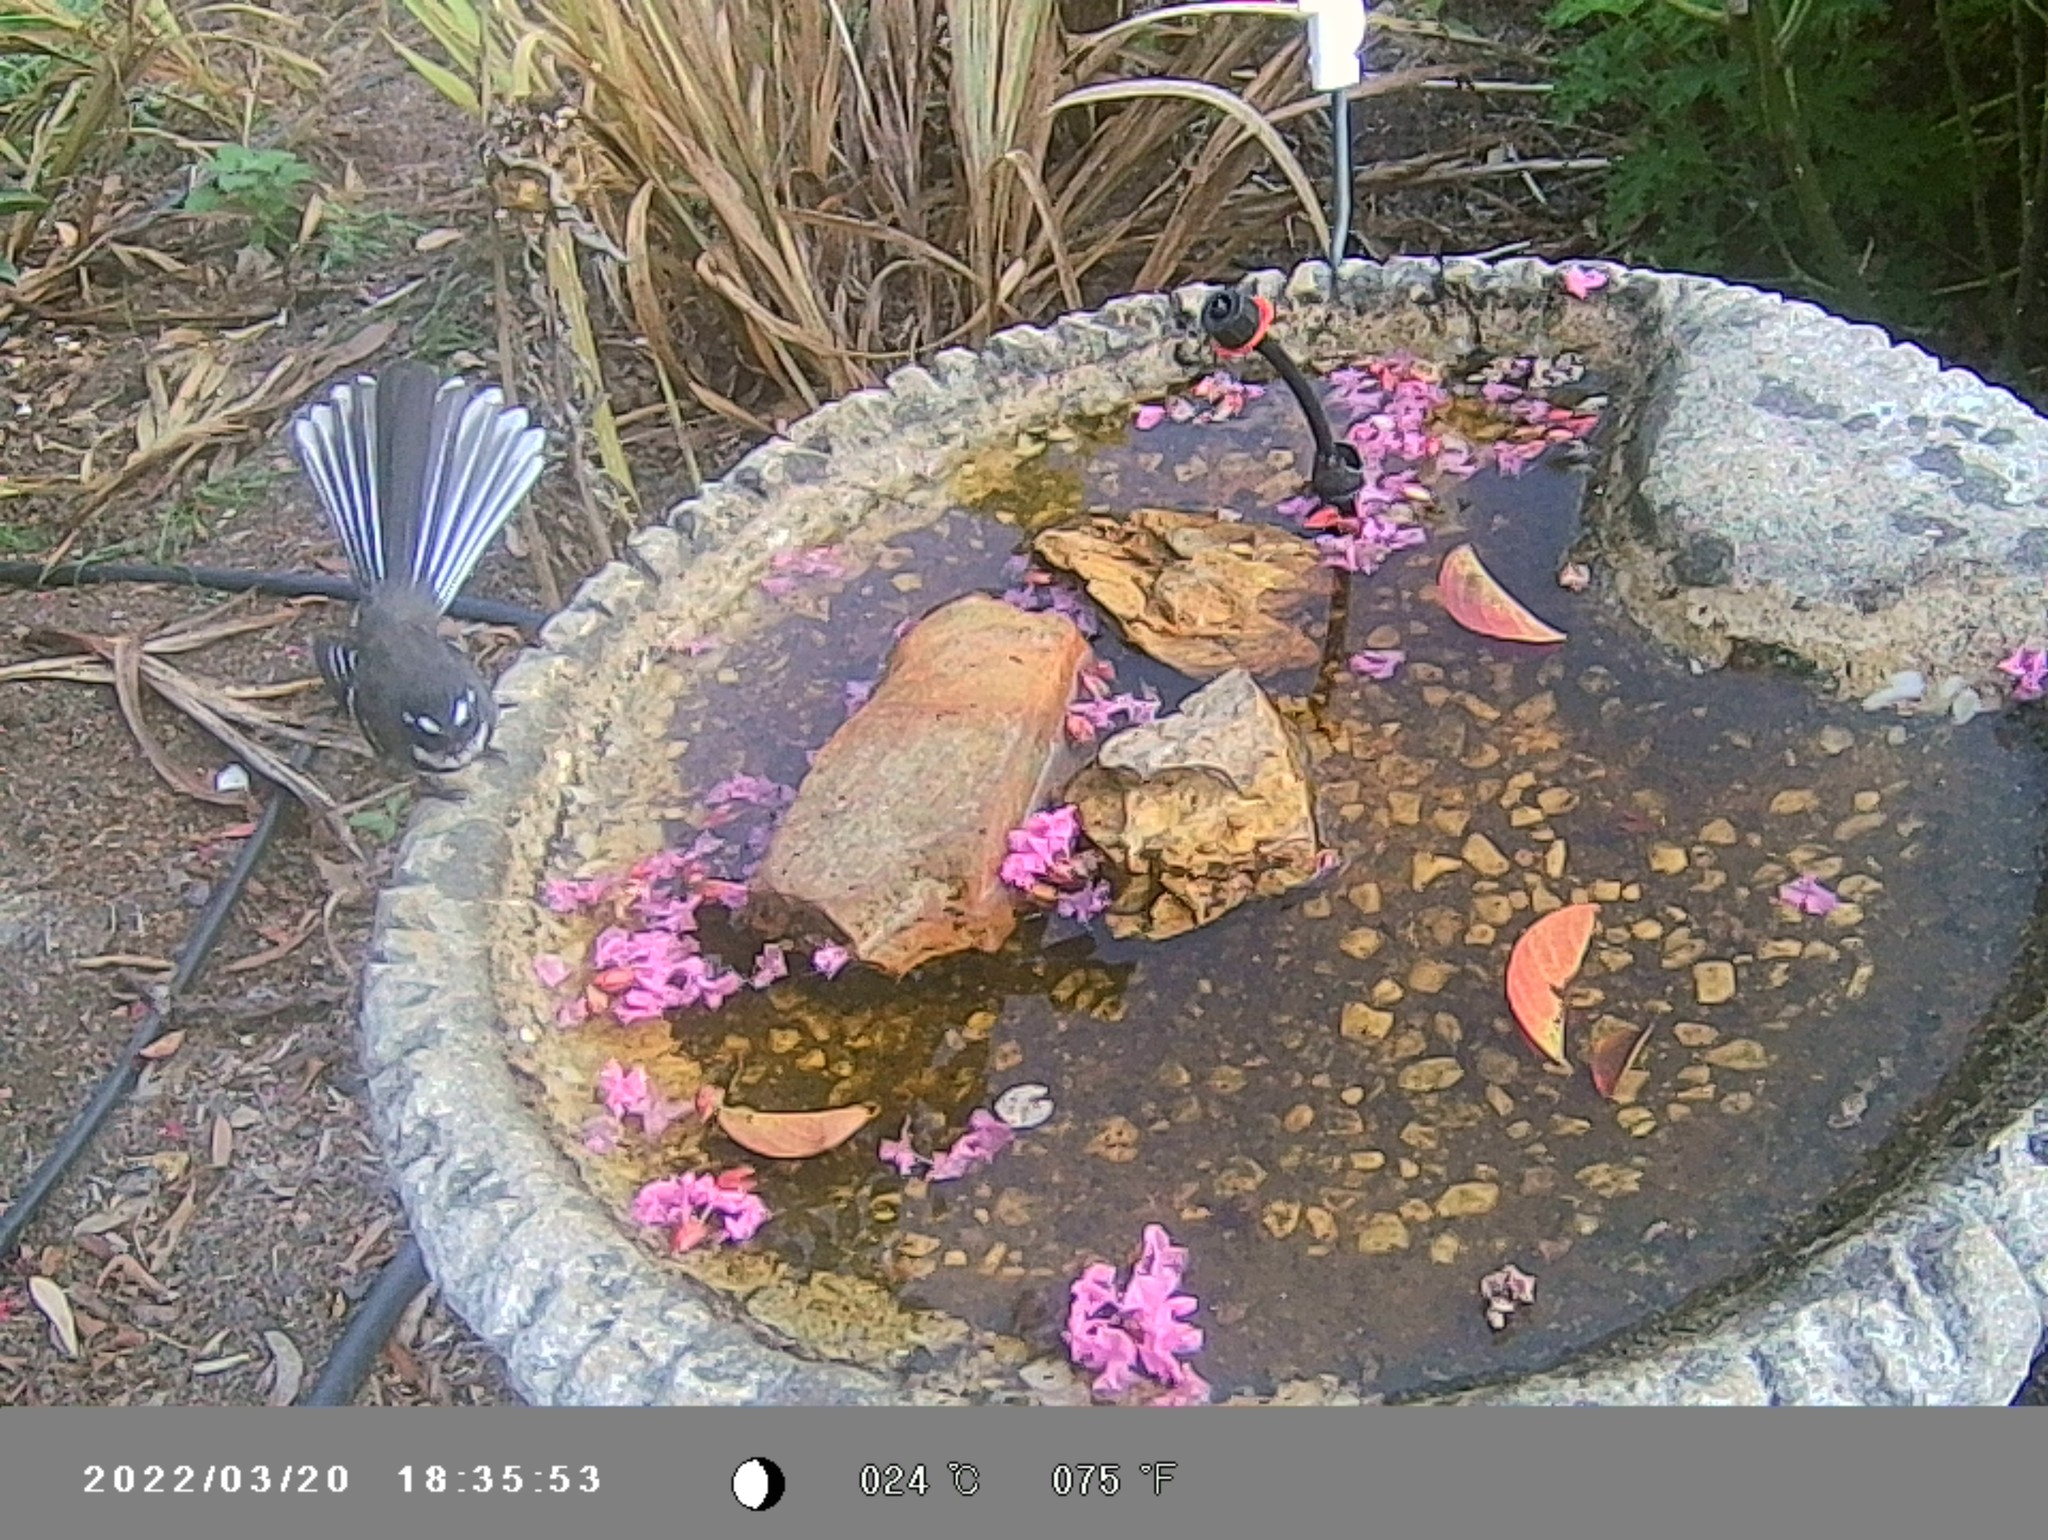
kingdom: Animalia
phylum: Chordata
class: Aves
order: Passeriformes
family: Rhipiduridae
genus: Rhipidura
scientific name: Rhipidura albiscapa
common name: Grey fantail
